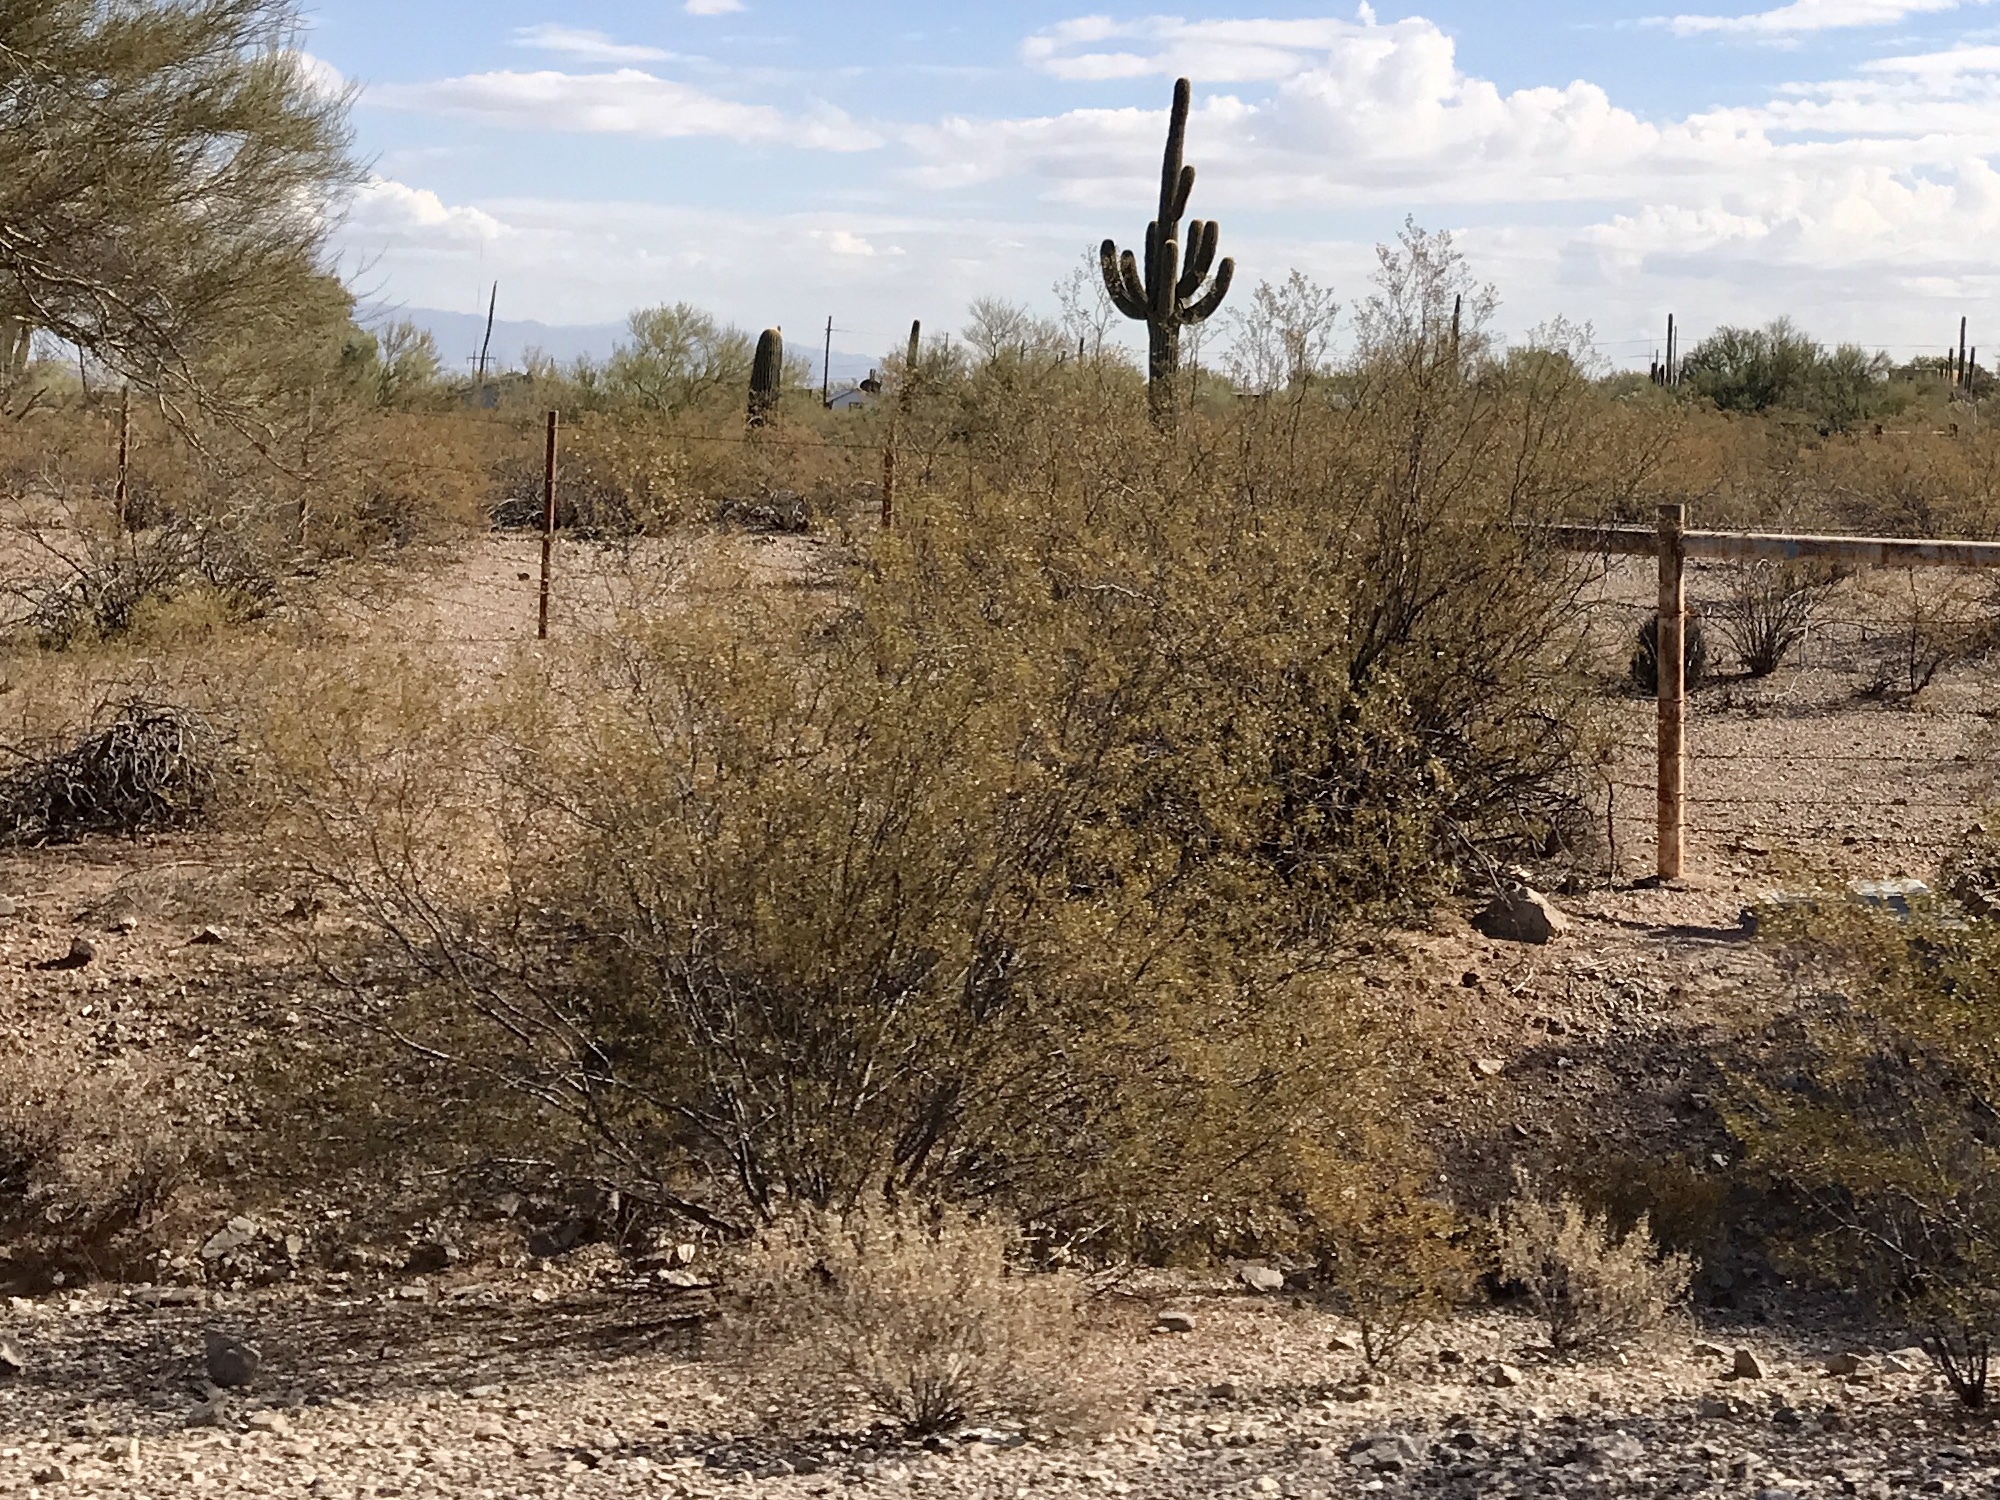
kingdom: Plantae
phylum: Tracheophyta
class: Magnoliopsida
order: Zygophyllales
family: Zygophyllaceae
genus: Larrea
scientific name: Larrea tridentata
